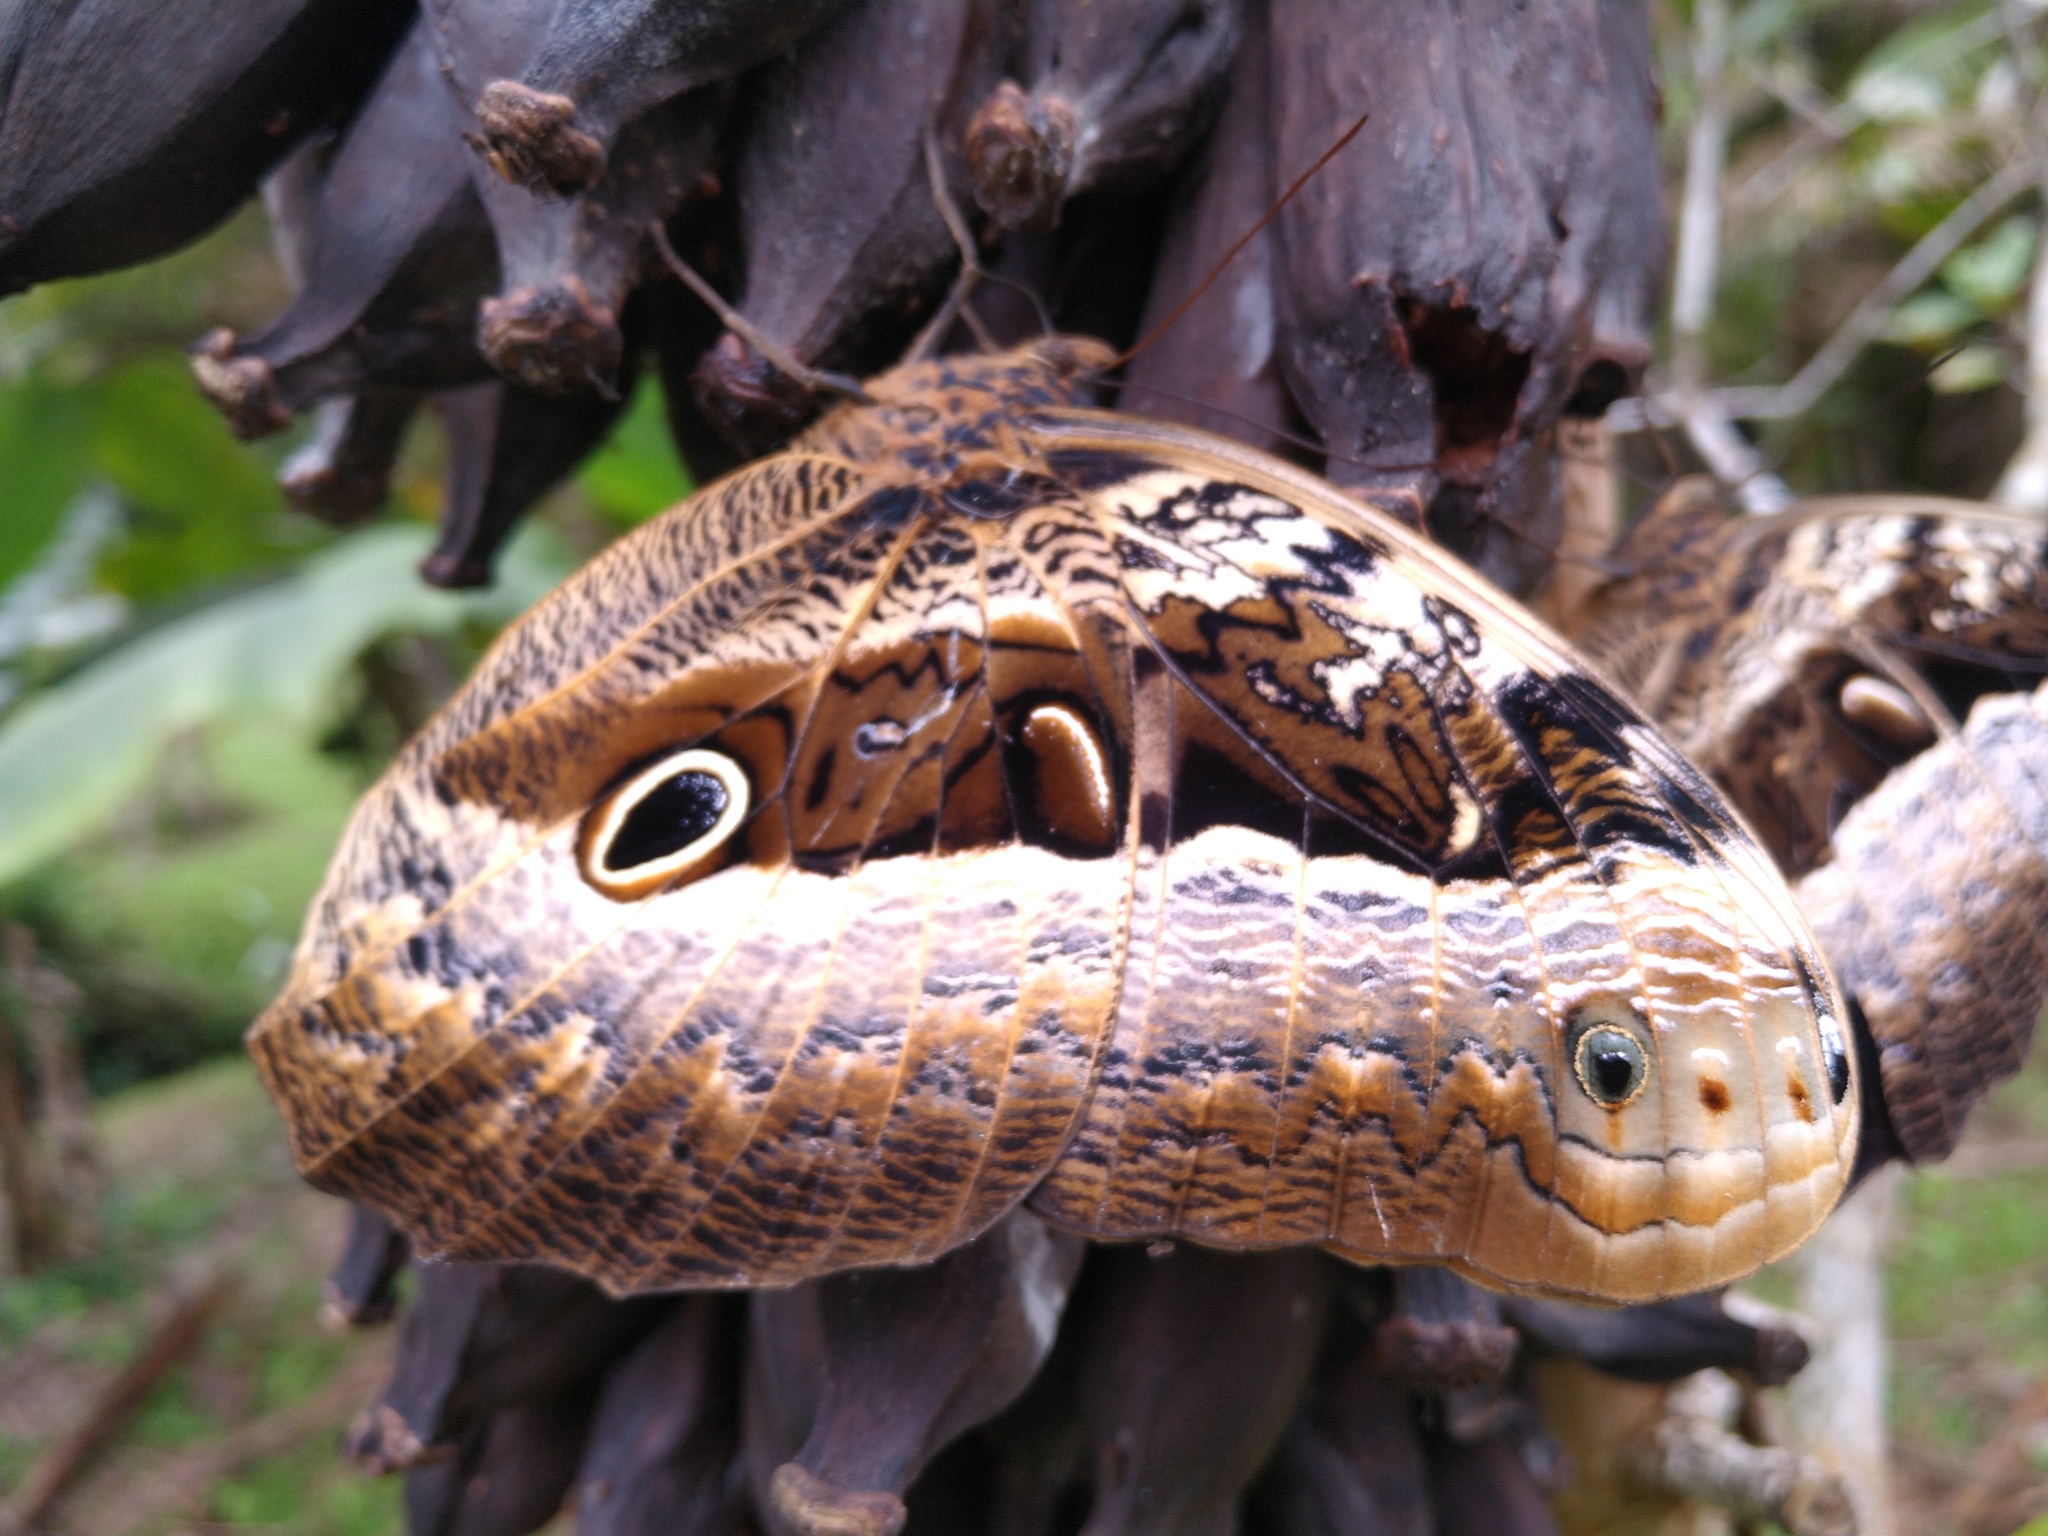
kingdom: Animalia
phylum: Arthropoda
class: Insecta
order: Lepidoptera
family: Nymphalidae
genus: Caligo
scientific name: Caligo beltrao
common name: Purple owl-butterfly
